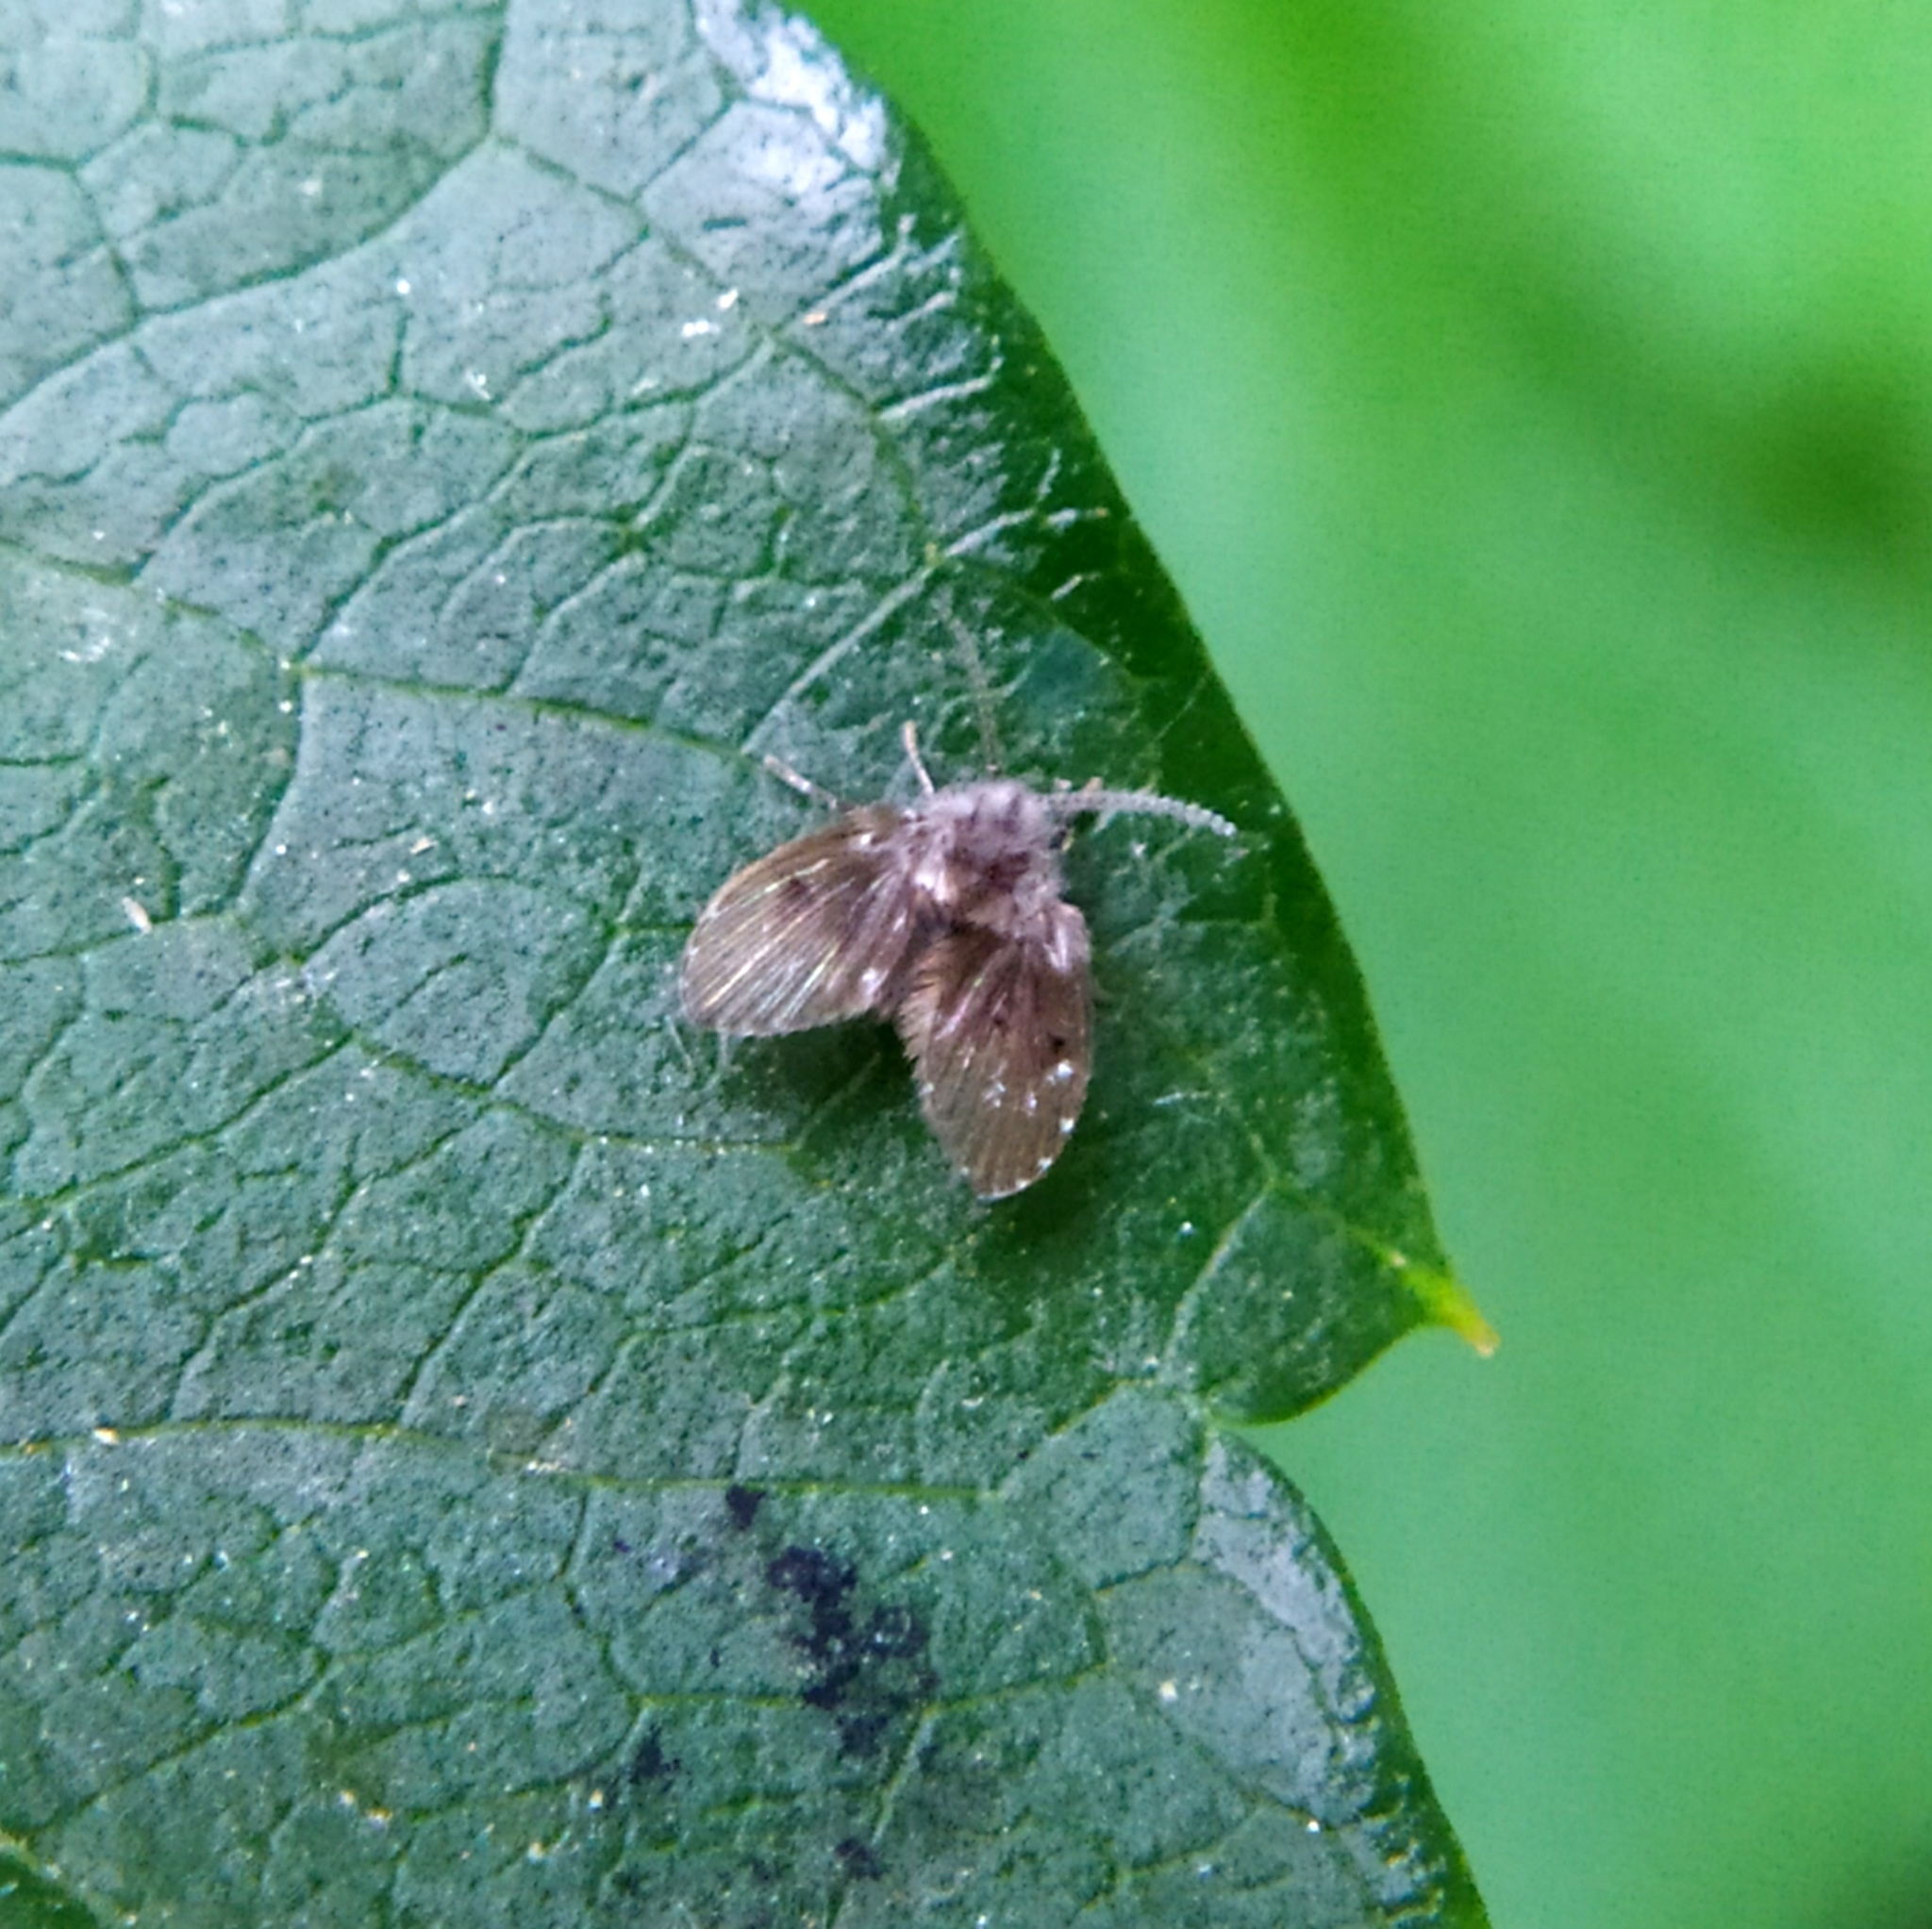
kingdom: Animalia
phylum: Arthropoda
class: Insecta
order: Diptera
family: Psychodidae
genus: Clogmia
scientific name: Clogmia albipunctatus
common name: White-spotted moth fly
